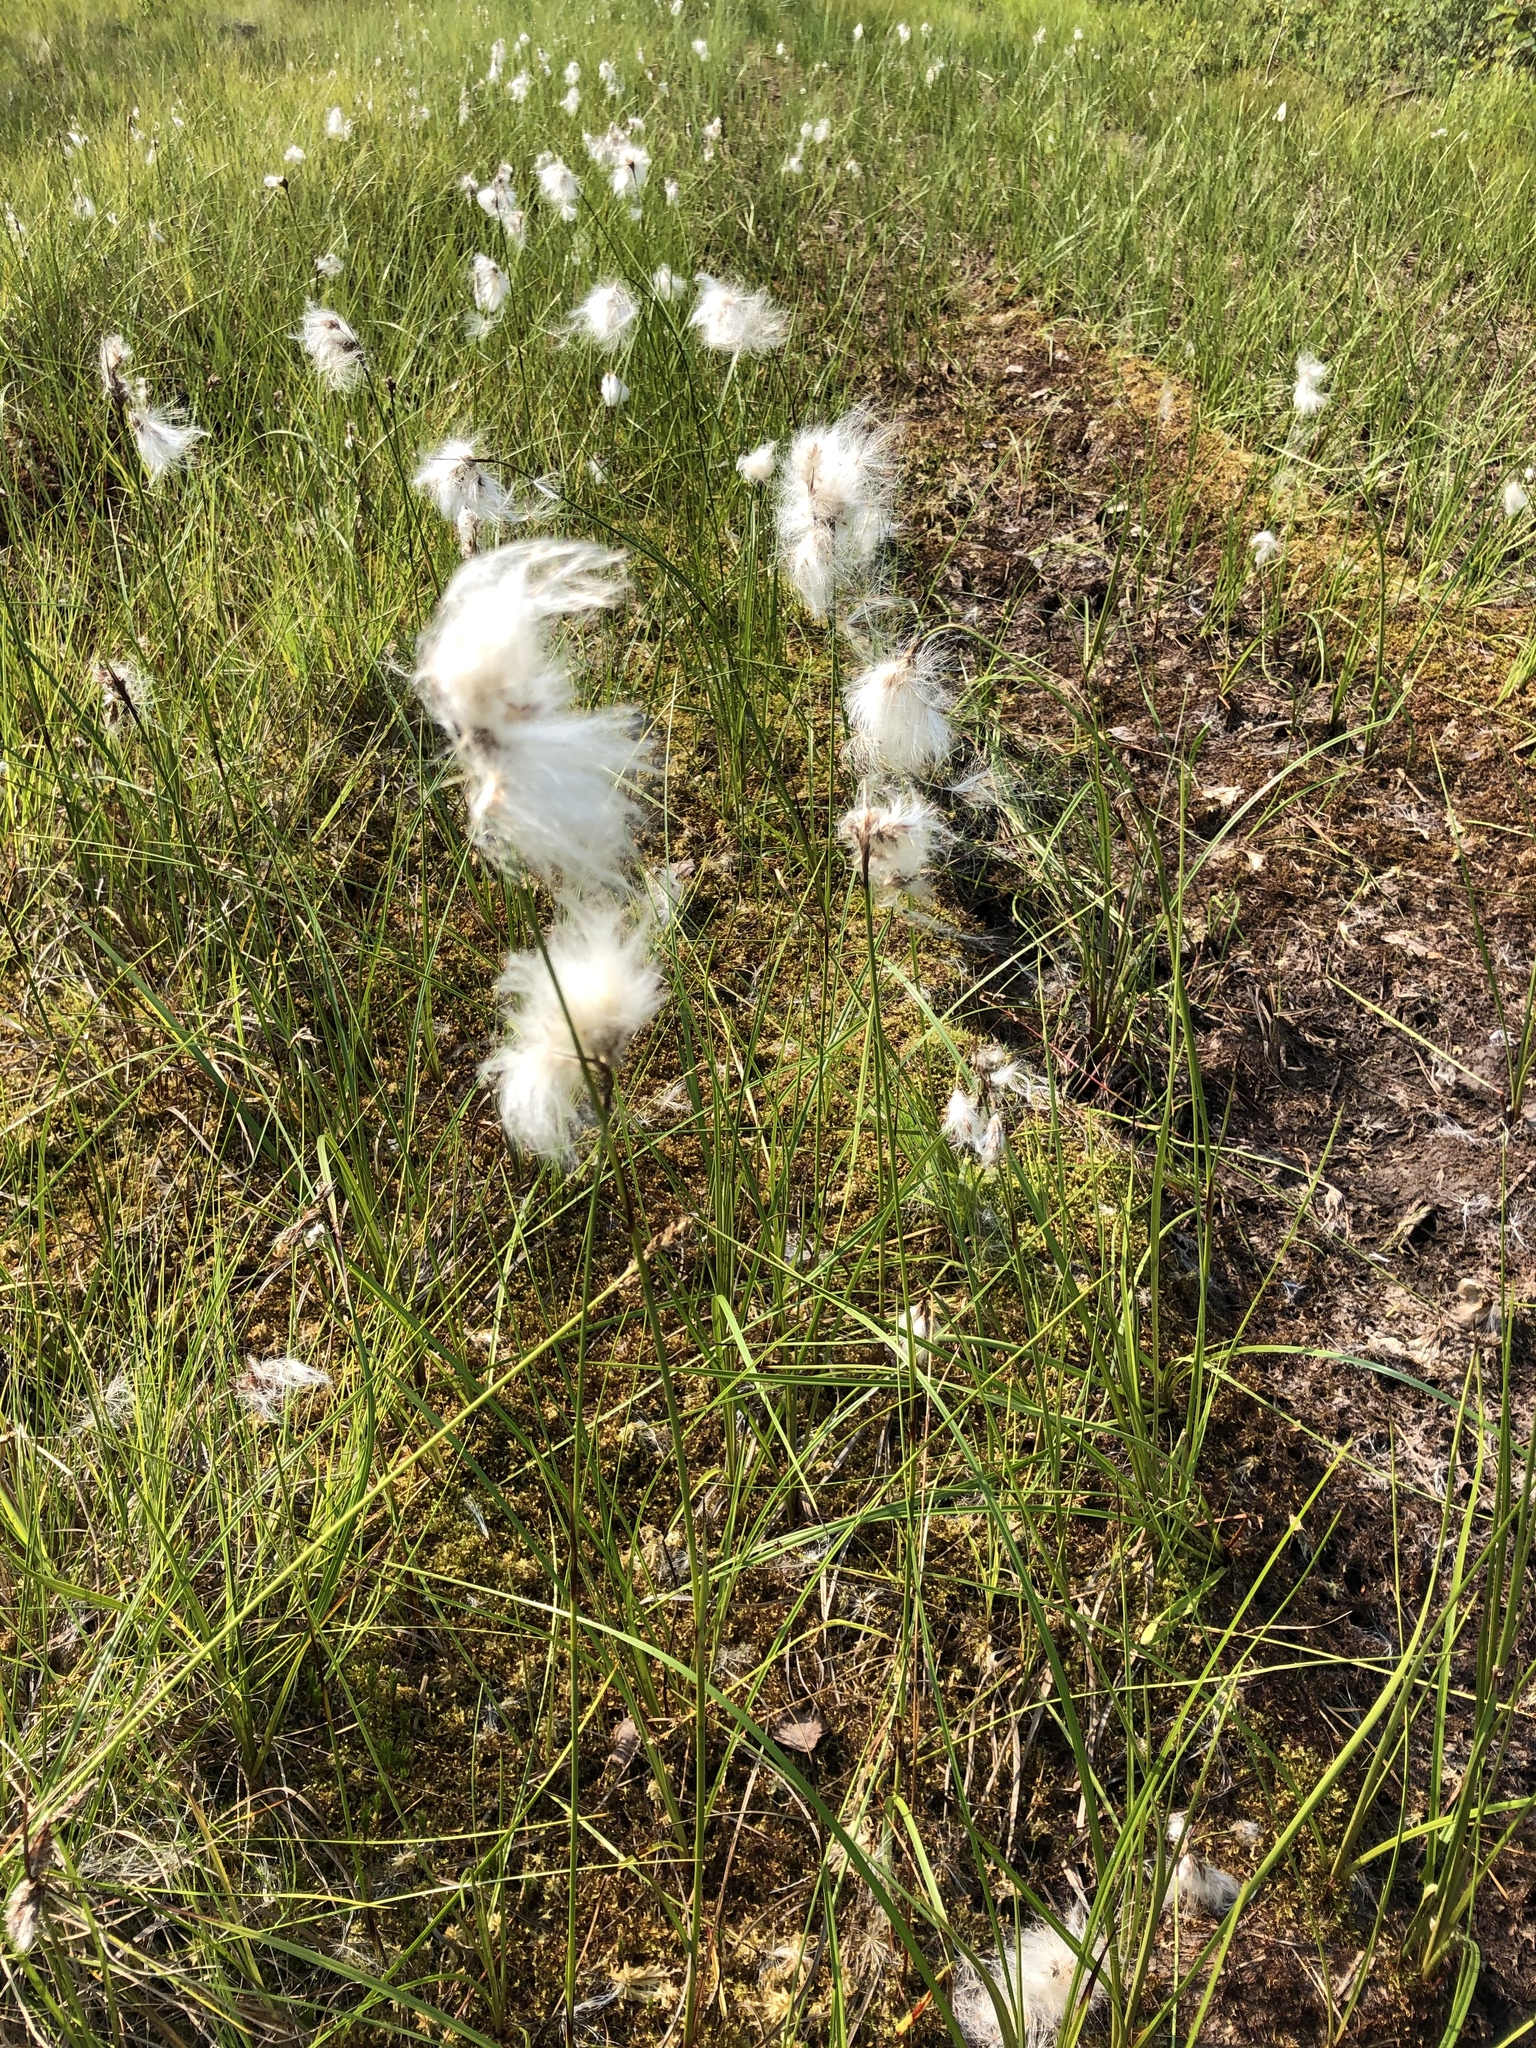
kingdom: Plantae
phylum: Tracheophyta
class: Liliopsida
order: Poales
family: Cyperaceae
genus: Eriophorum
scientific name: Eriophorum angustifolium
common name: Common cottongrass
